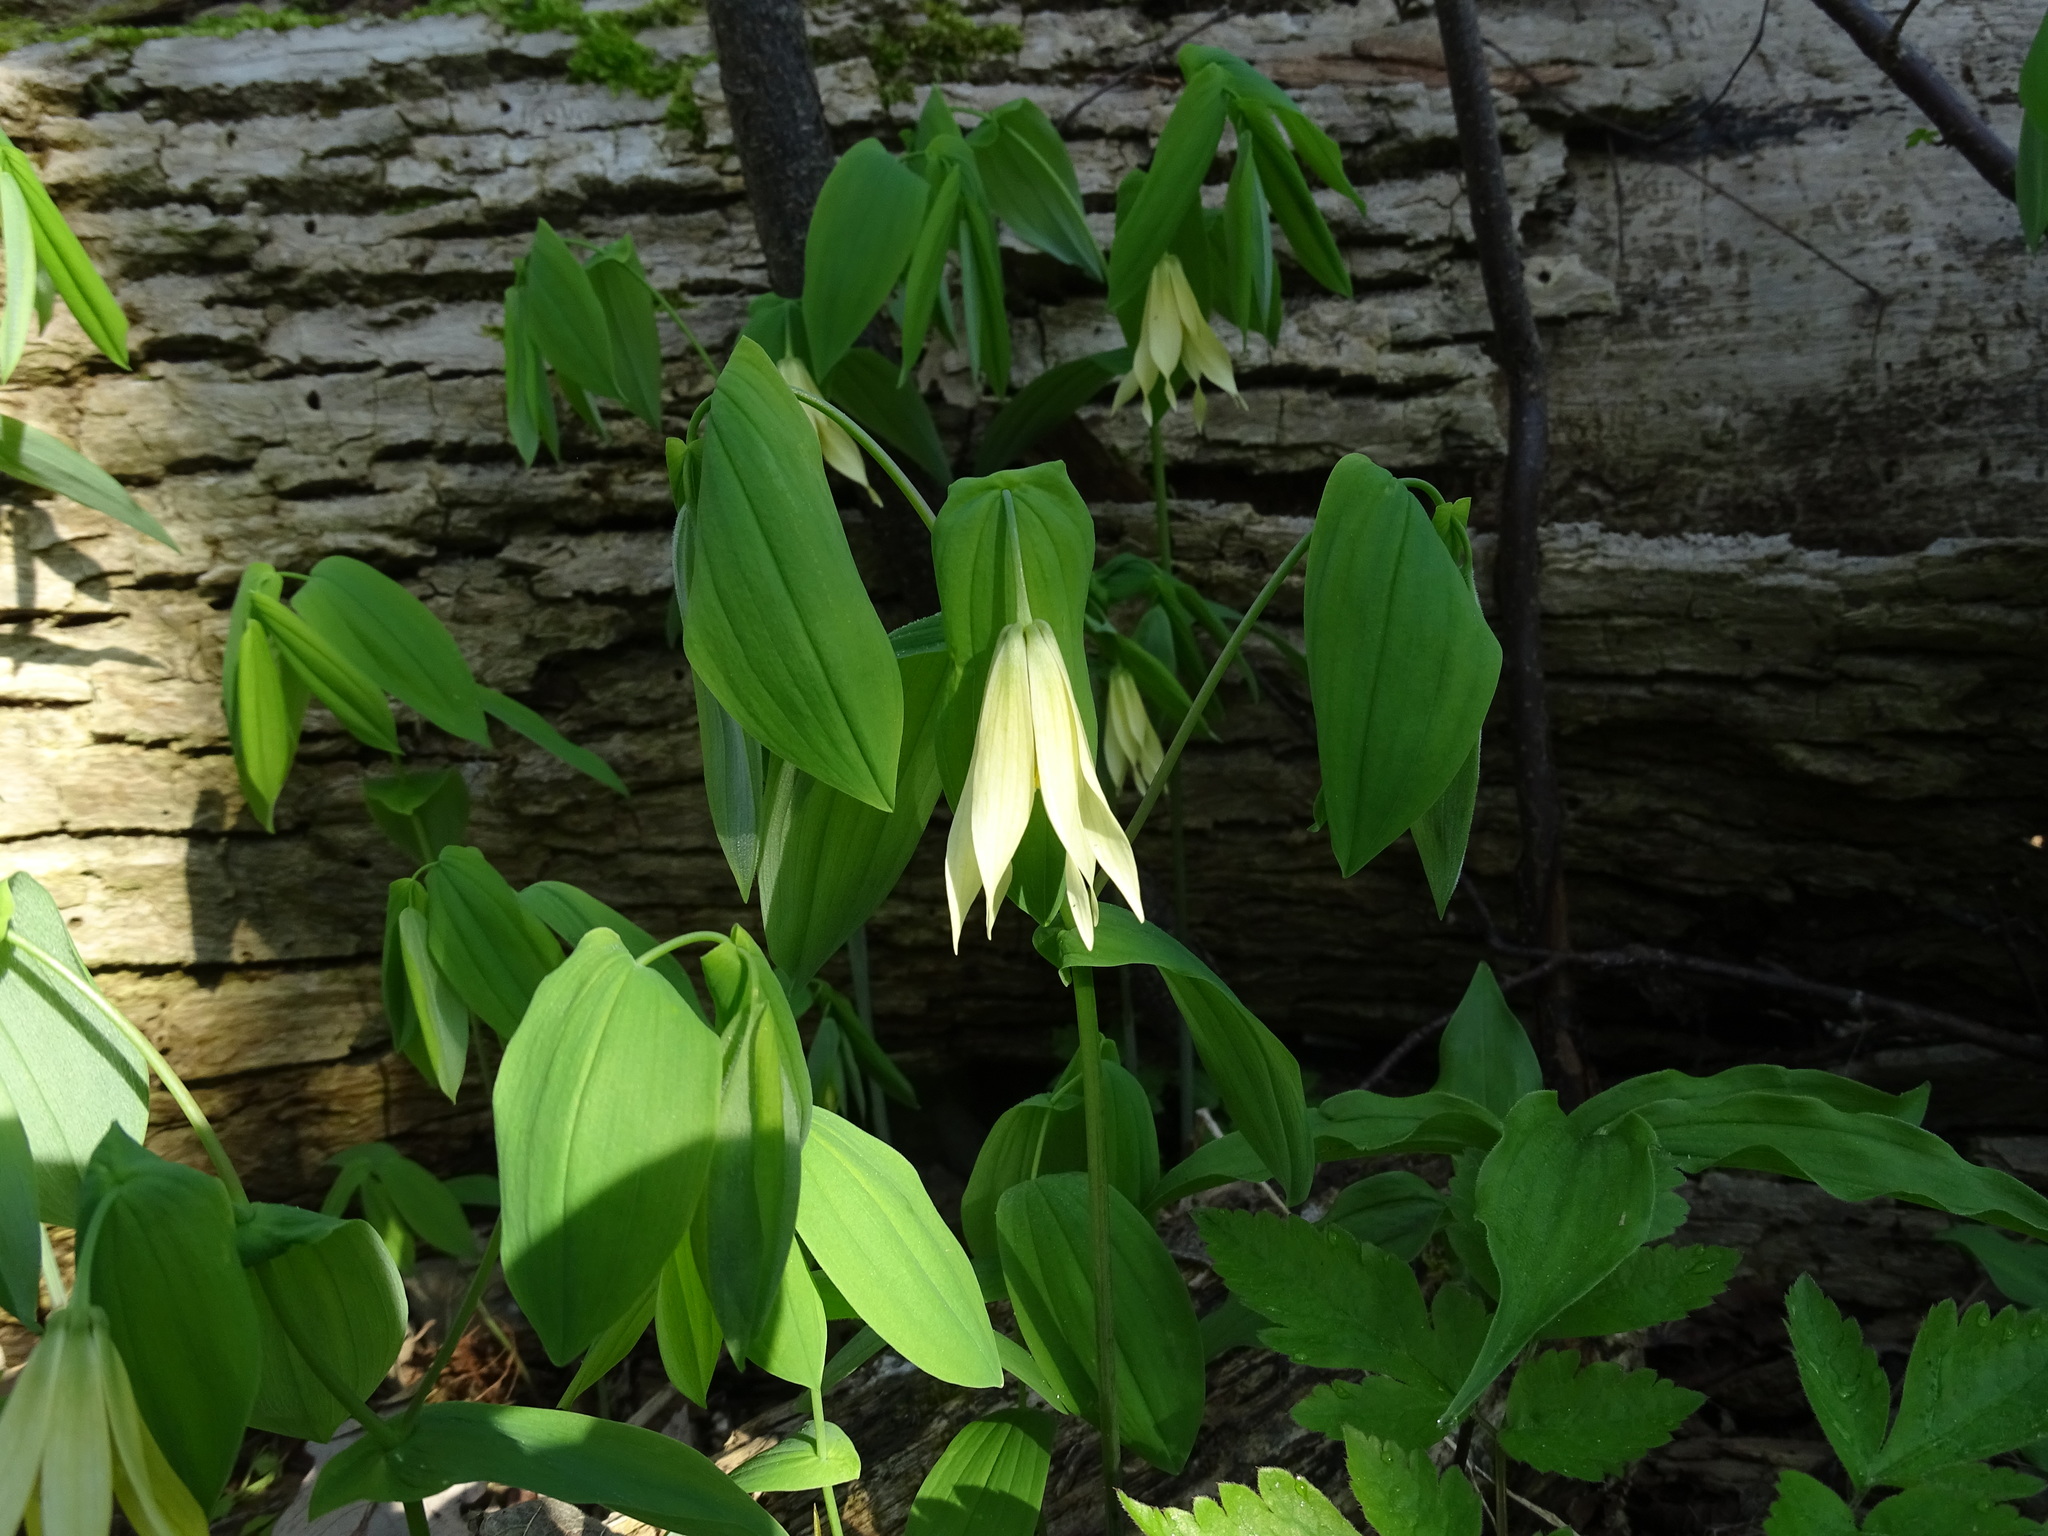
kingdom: Plantae
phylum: Tracheophyta
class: Liliopsida
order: Liliales
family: Colchicaceae
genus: Uvularia
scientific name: Uvularia grandiflora
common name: Bellwort
